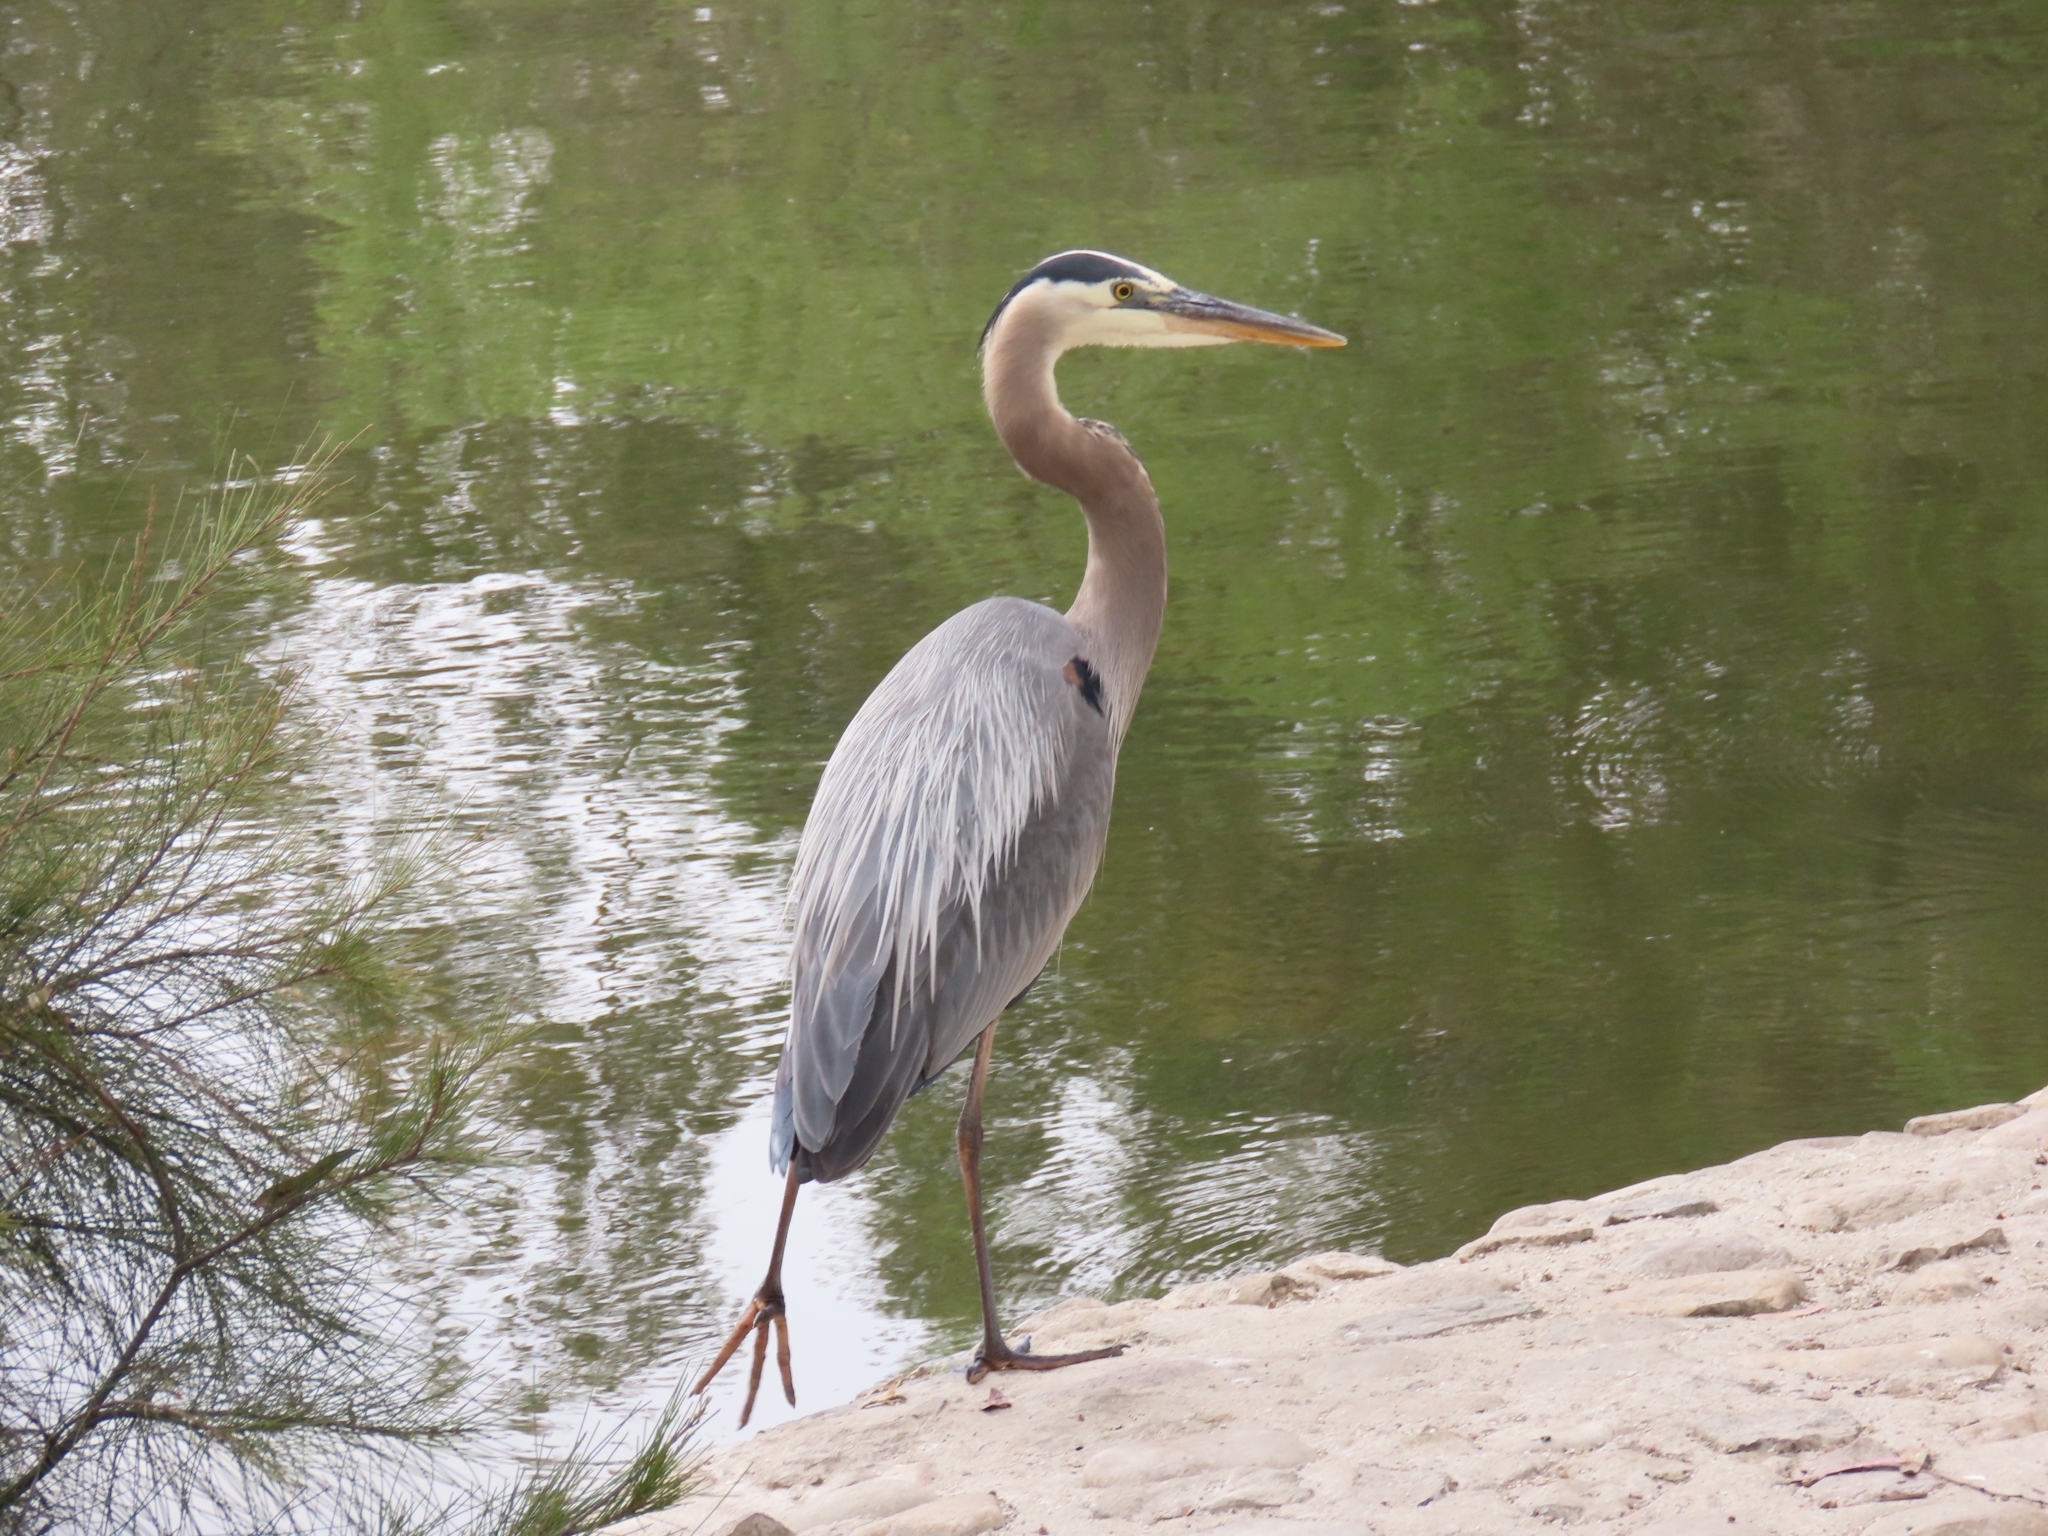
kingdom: Animalia
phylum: Chordata
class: Aves
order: Pelecaniformes
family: Ardeidae
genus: Ardea
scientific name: Ardea herodias
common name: Great blue heron
